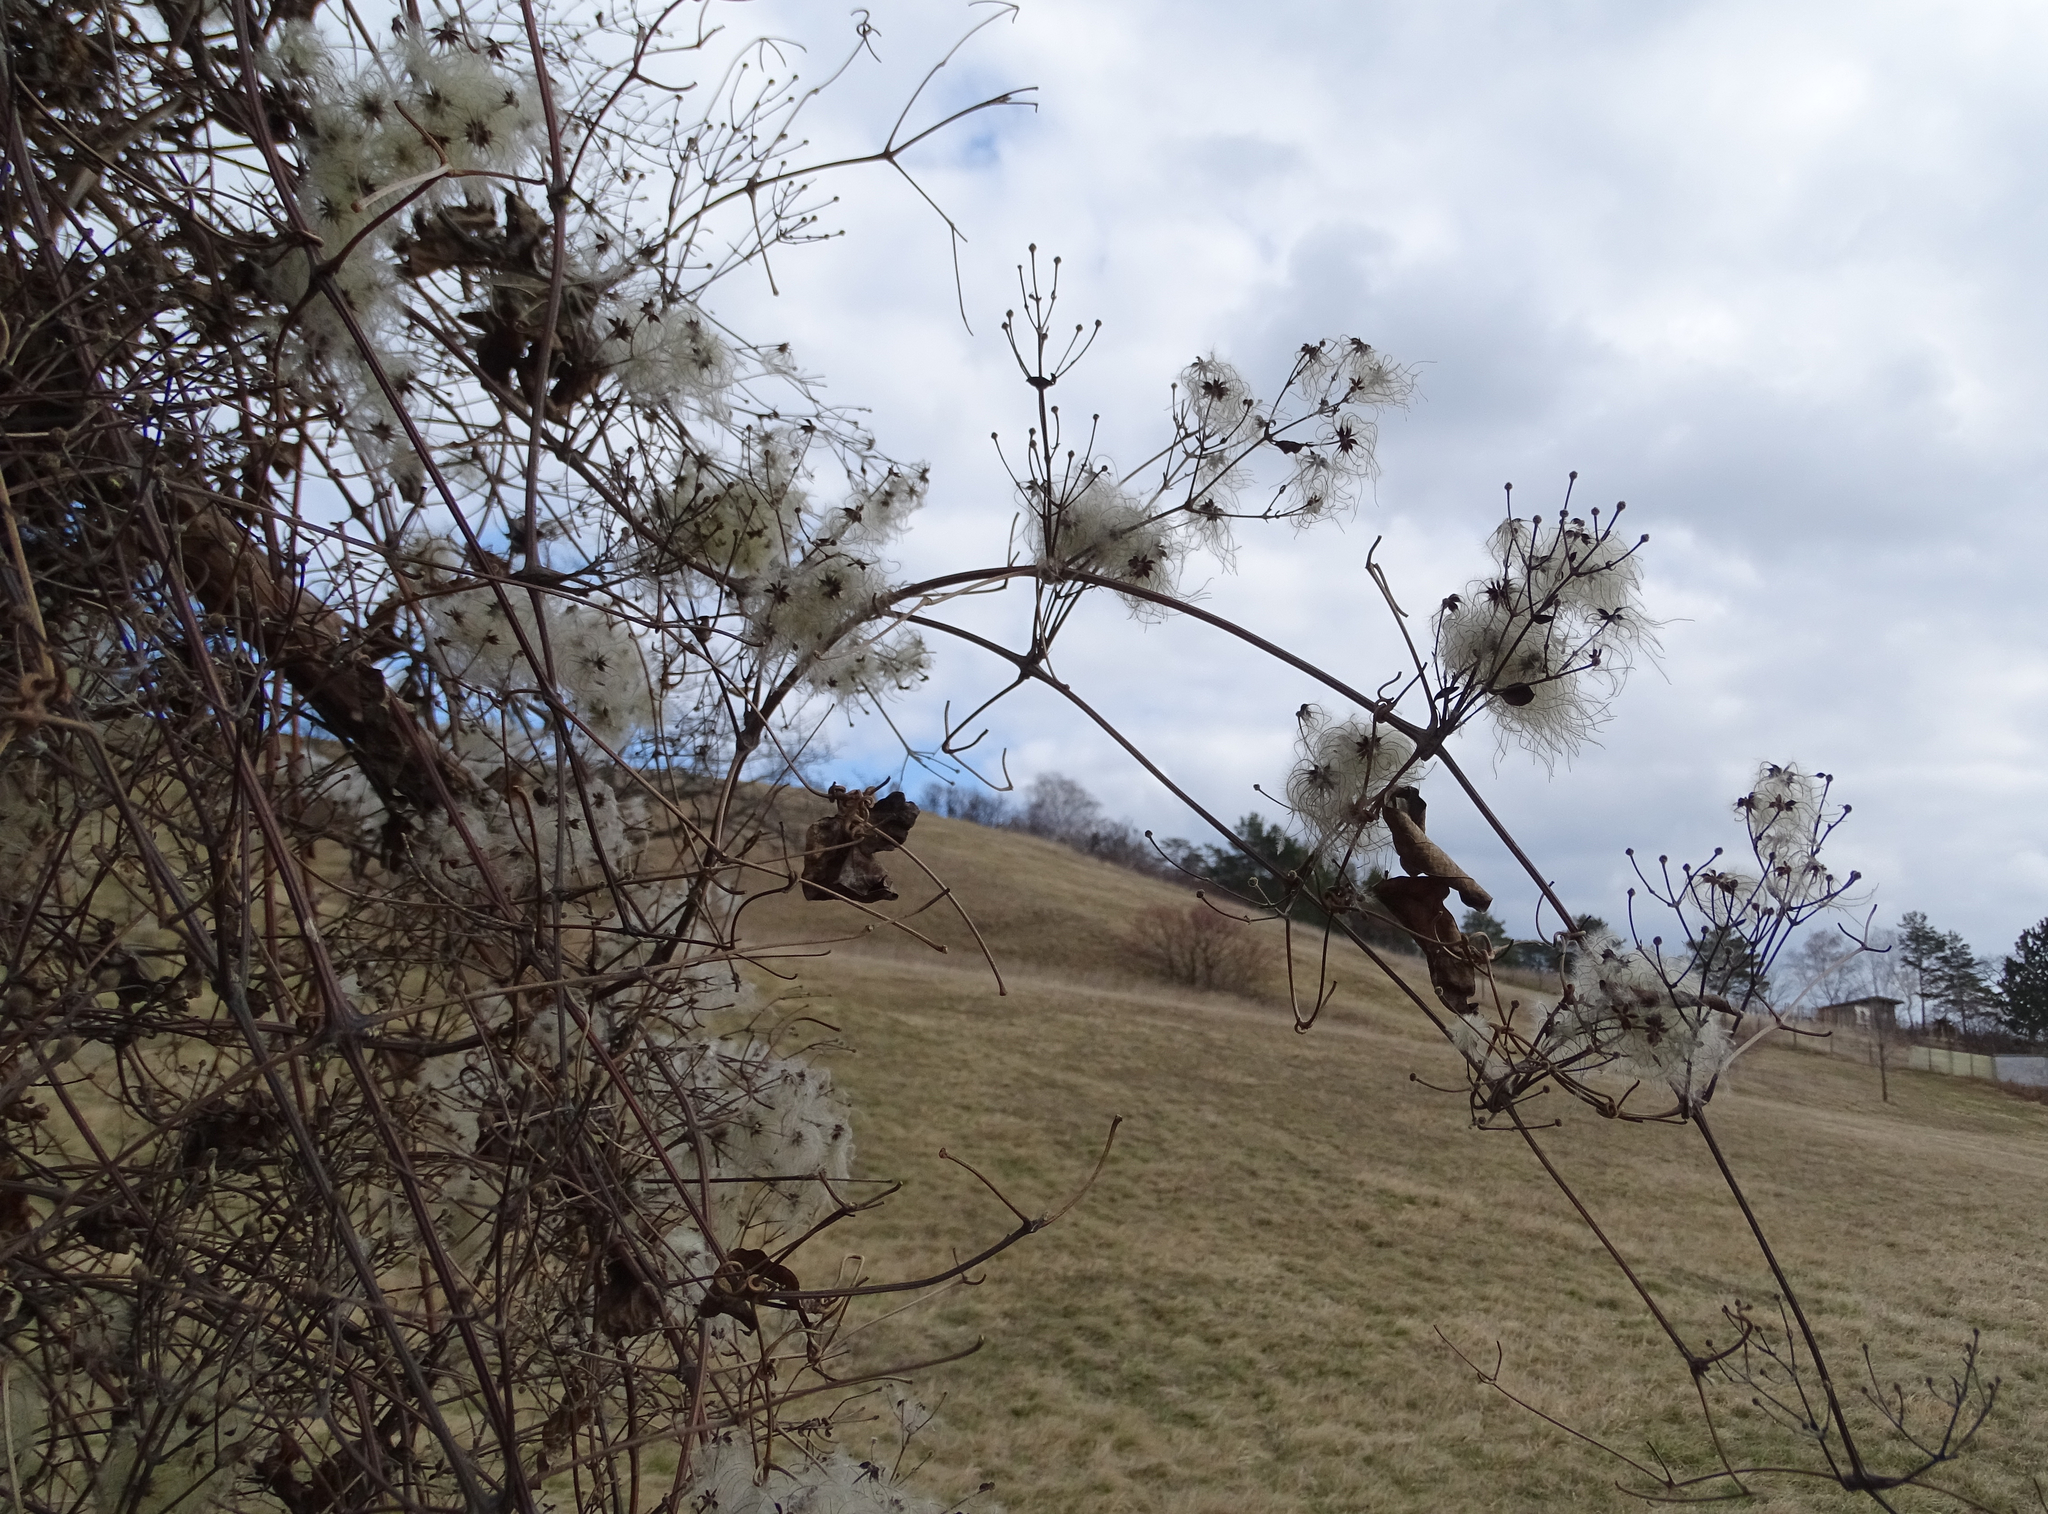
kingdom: Plantae
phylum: Tracheophyta
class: Magnoliopsida
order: Ranunculales
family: Ranunculaceae
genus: Clematis
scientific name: Clematis vitalba
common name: Evergreen clematis
